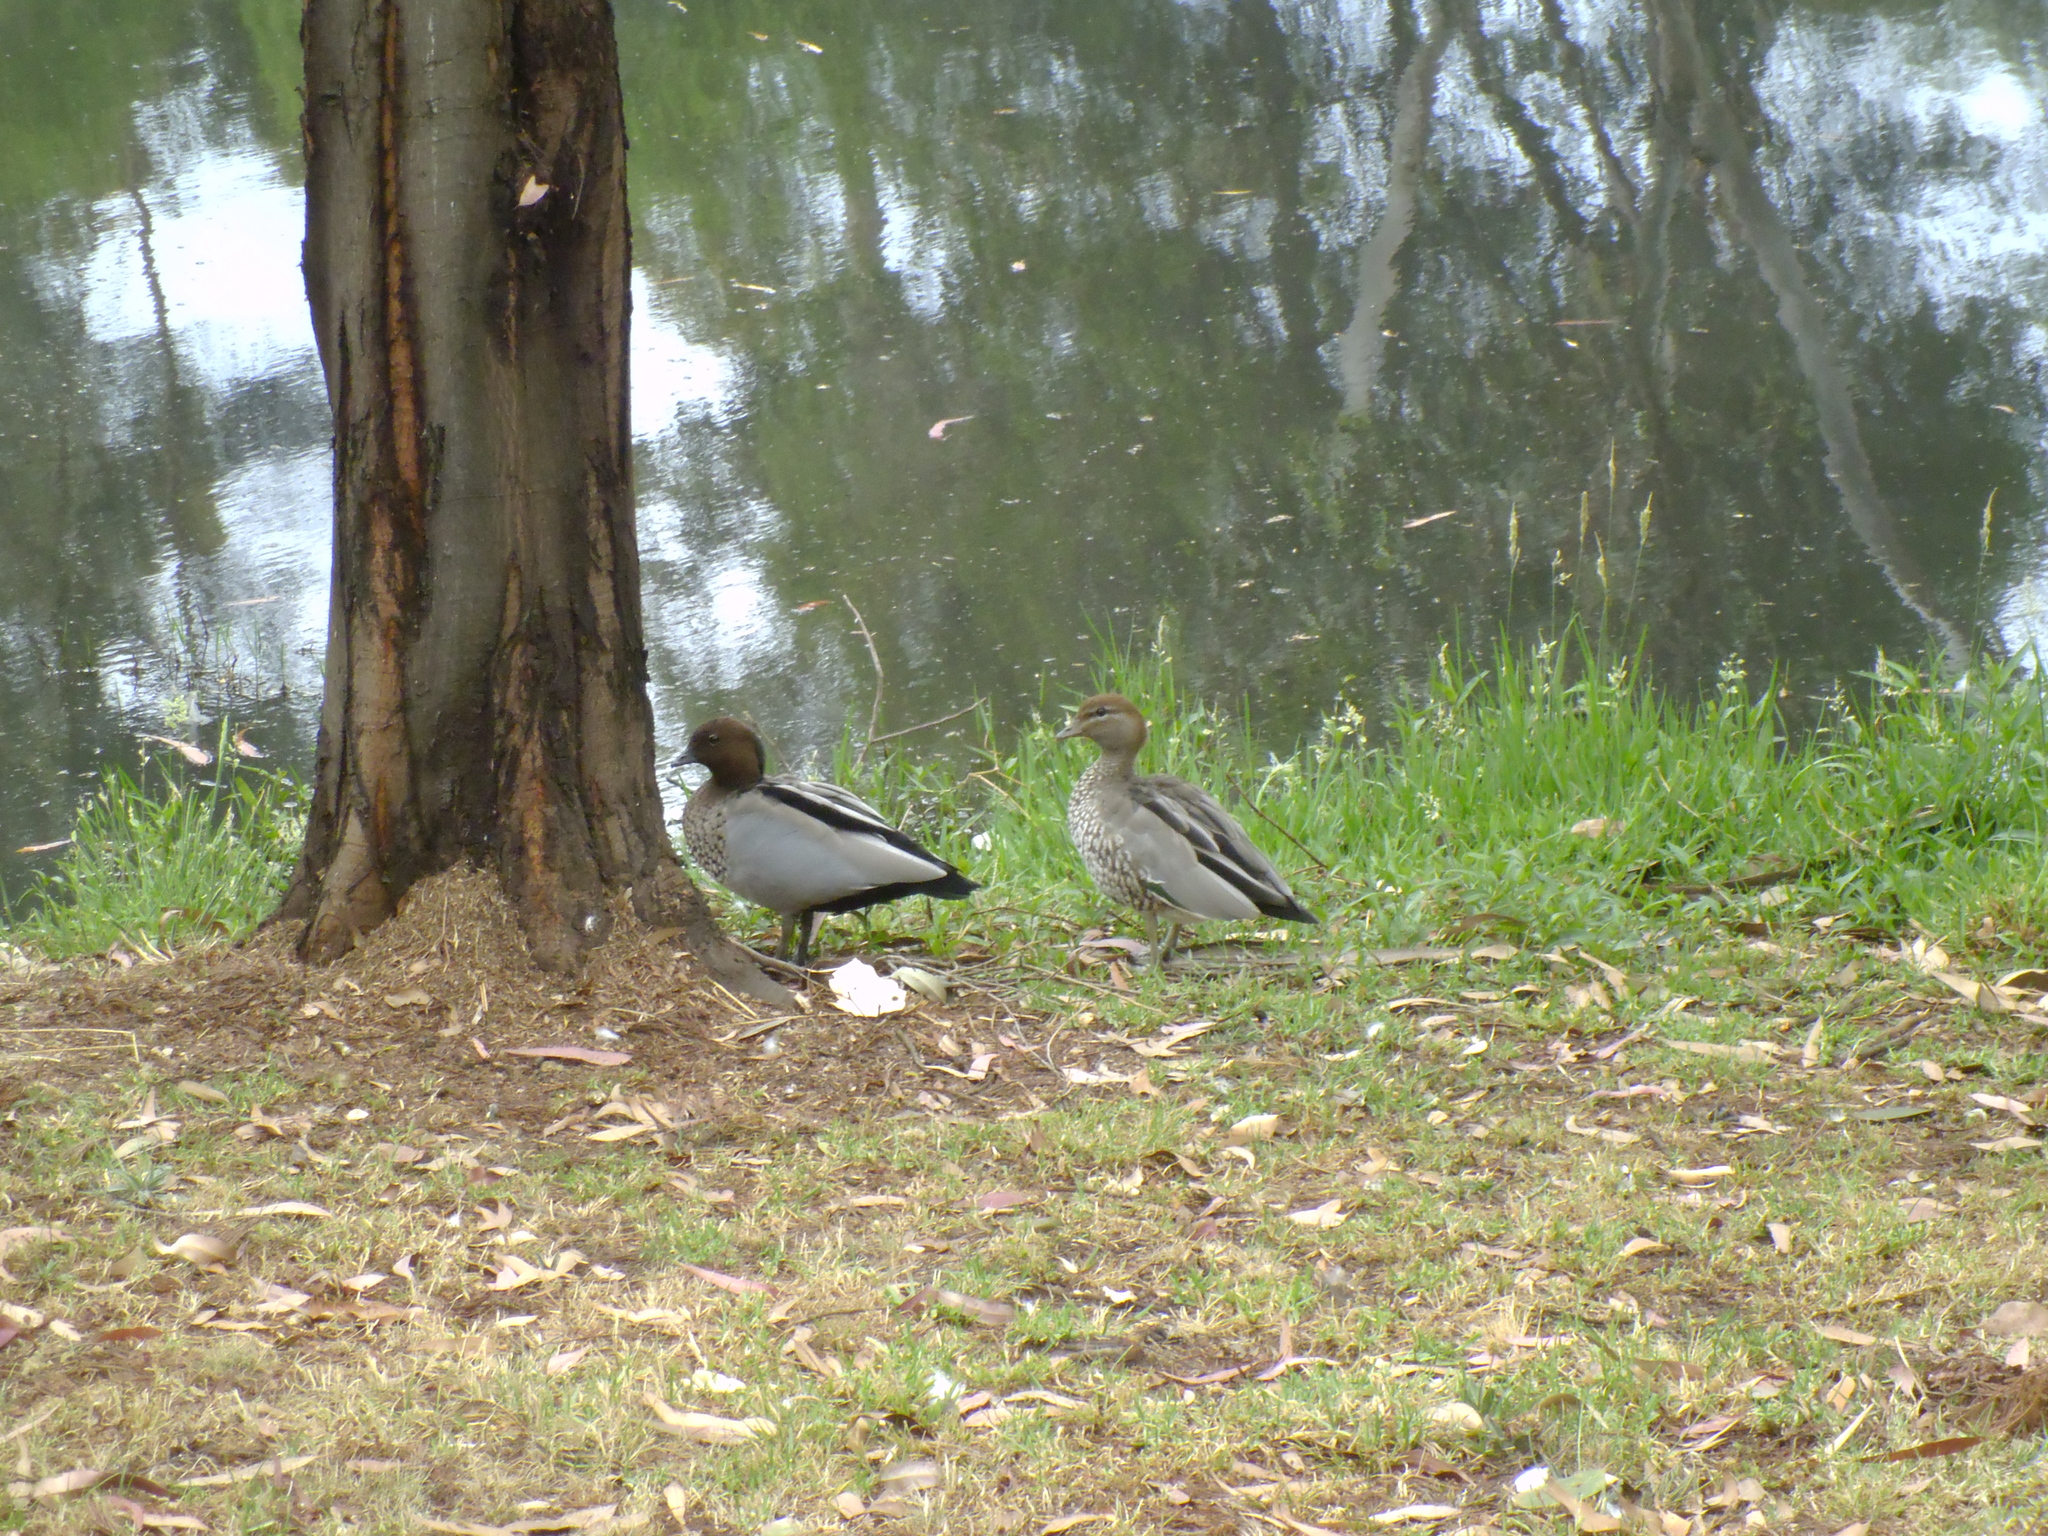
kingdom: Animalia
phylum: Chordata
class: Aves
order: Anseriformes
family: Anatidae
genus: Chenonetta
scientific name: Chenonetta jubata
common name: Maned duck
